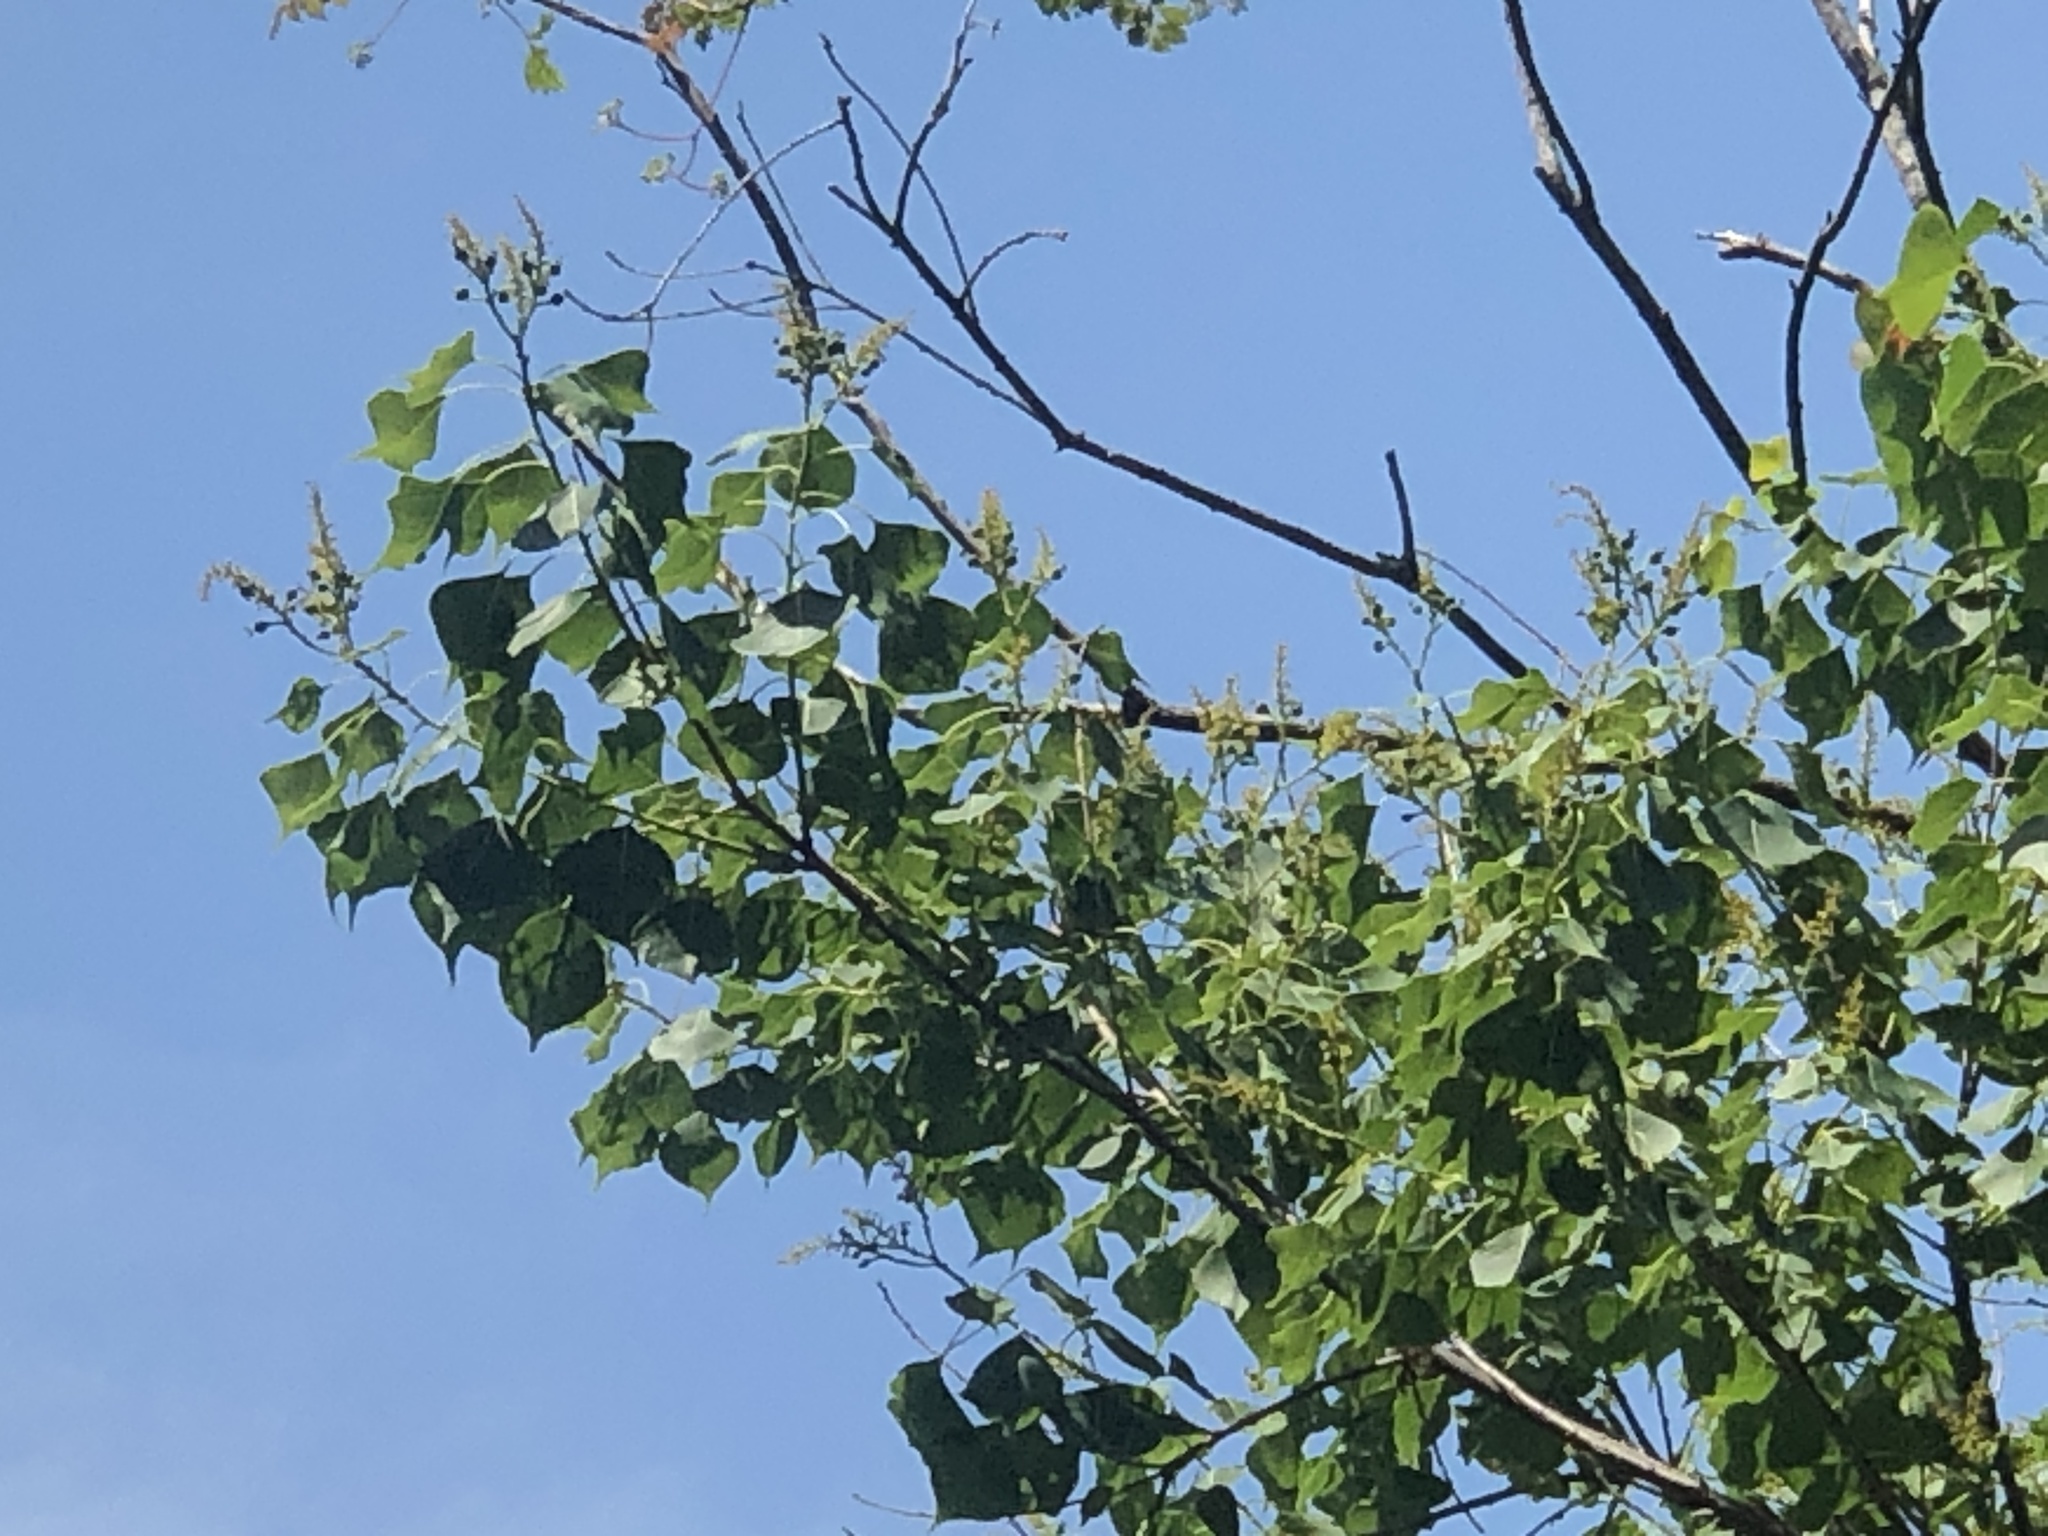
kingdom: Plantae
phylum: Tracheophyta
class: Magnoliopsida
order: Malpighiales
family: Euphorbiaceae
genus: Triadica
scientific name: Triadica sebifera
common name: Chinese tallow
